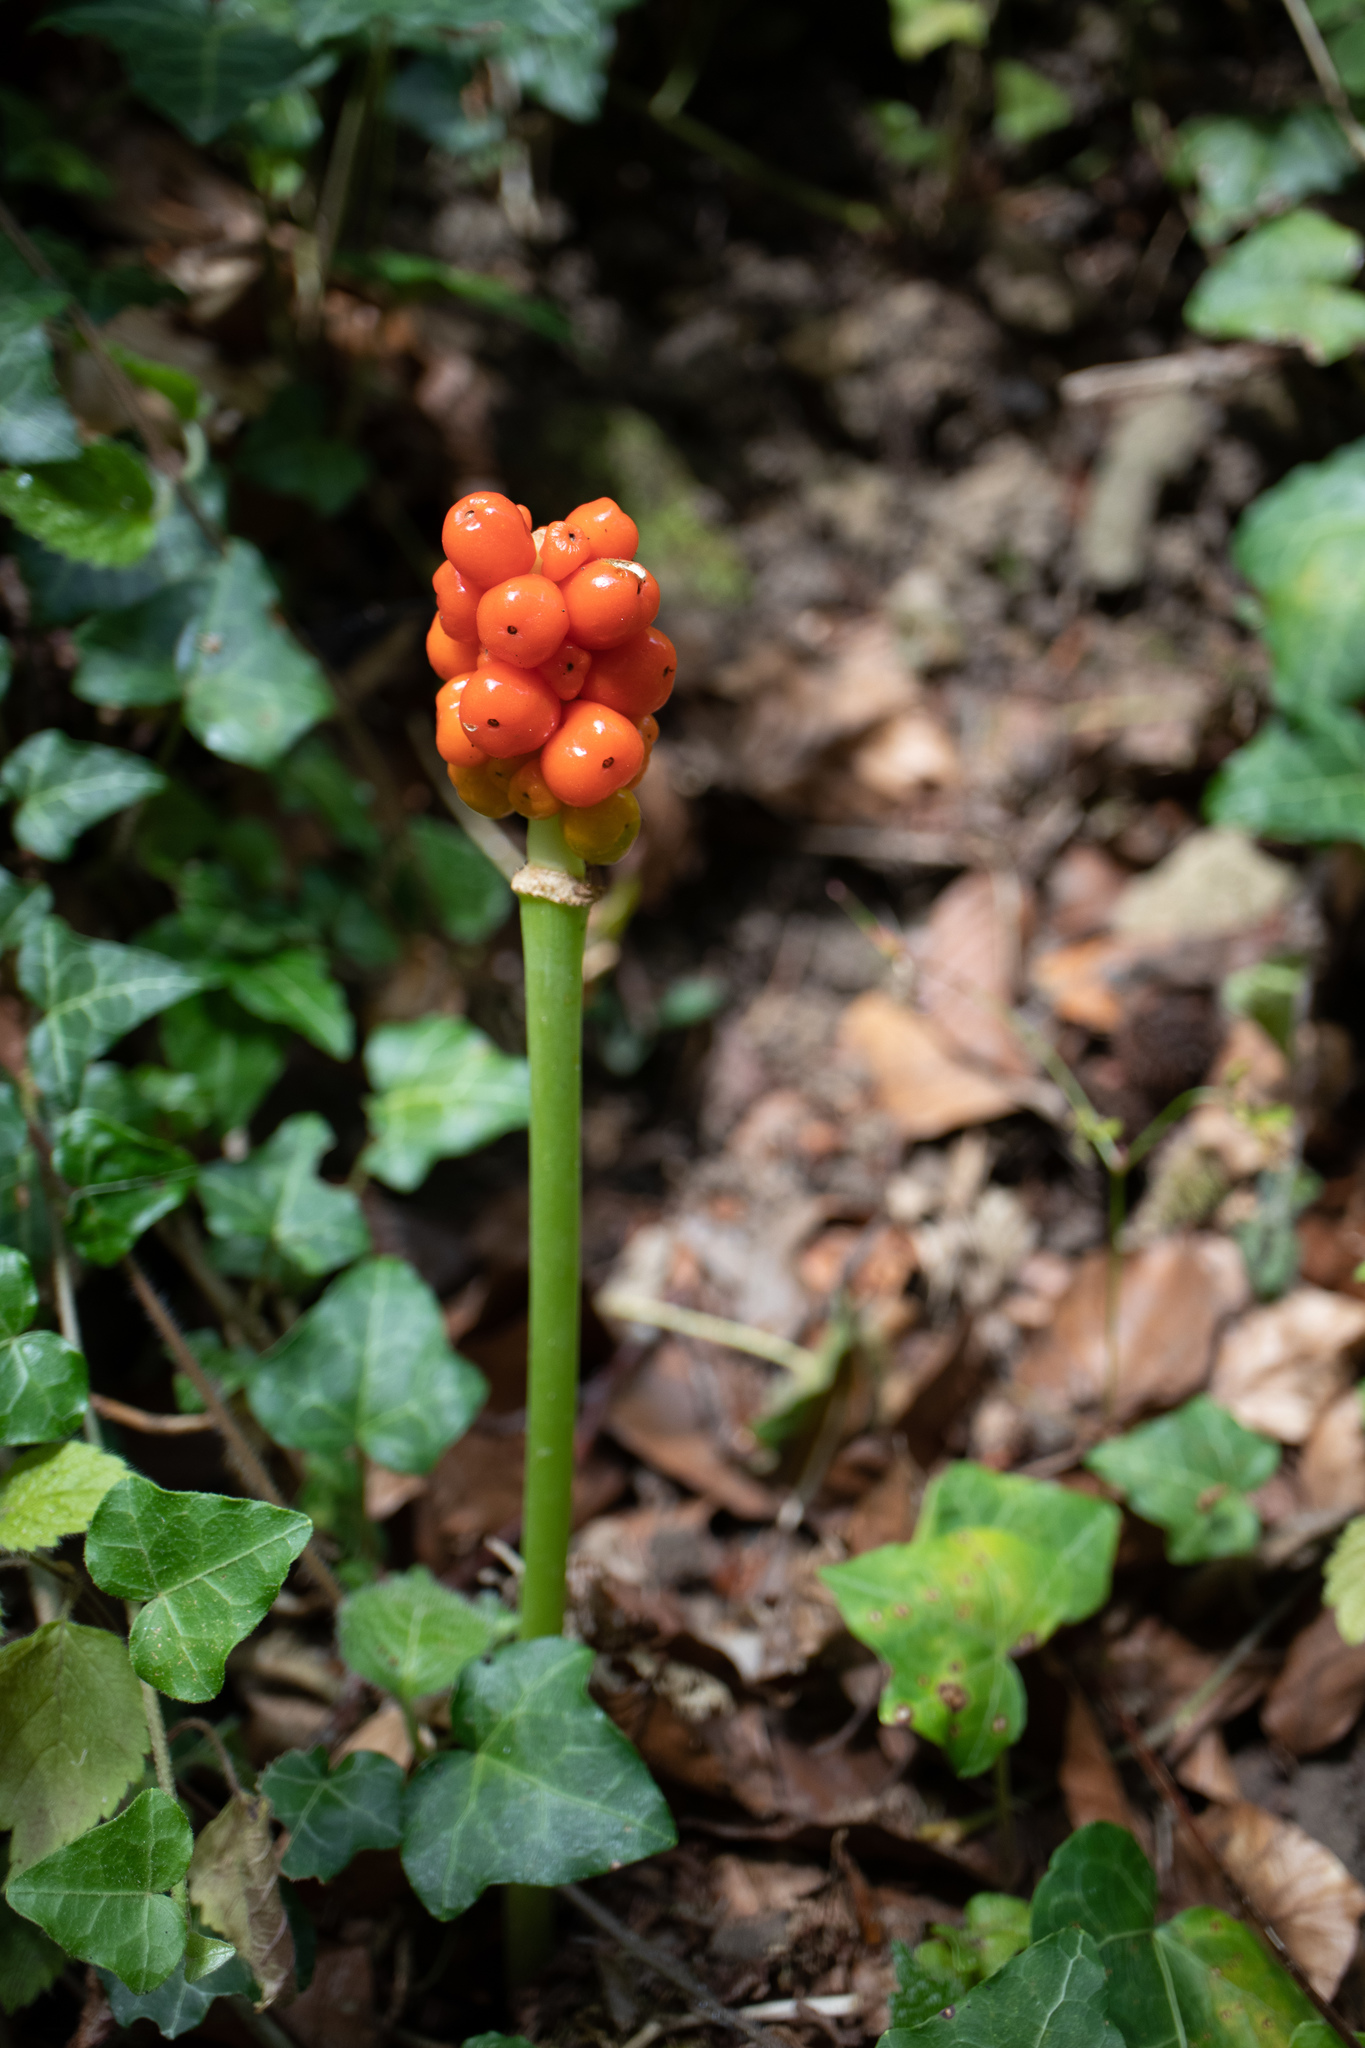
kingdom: Plantae
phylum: Tracheophyta
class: Liliopsida
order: Alismatales
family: Araceae
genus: Arum
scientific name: Arum maculatum
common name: Lords-and-ladies
